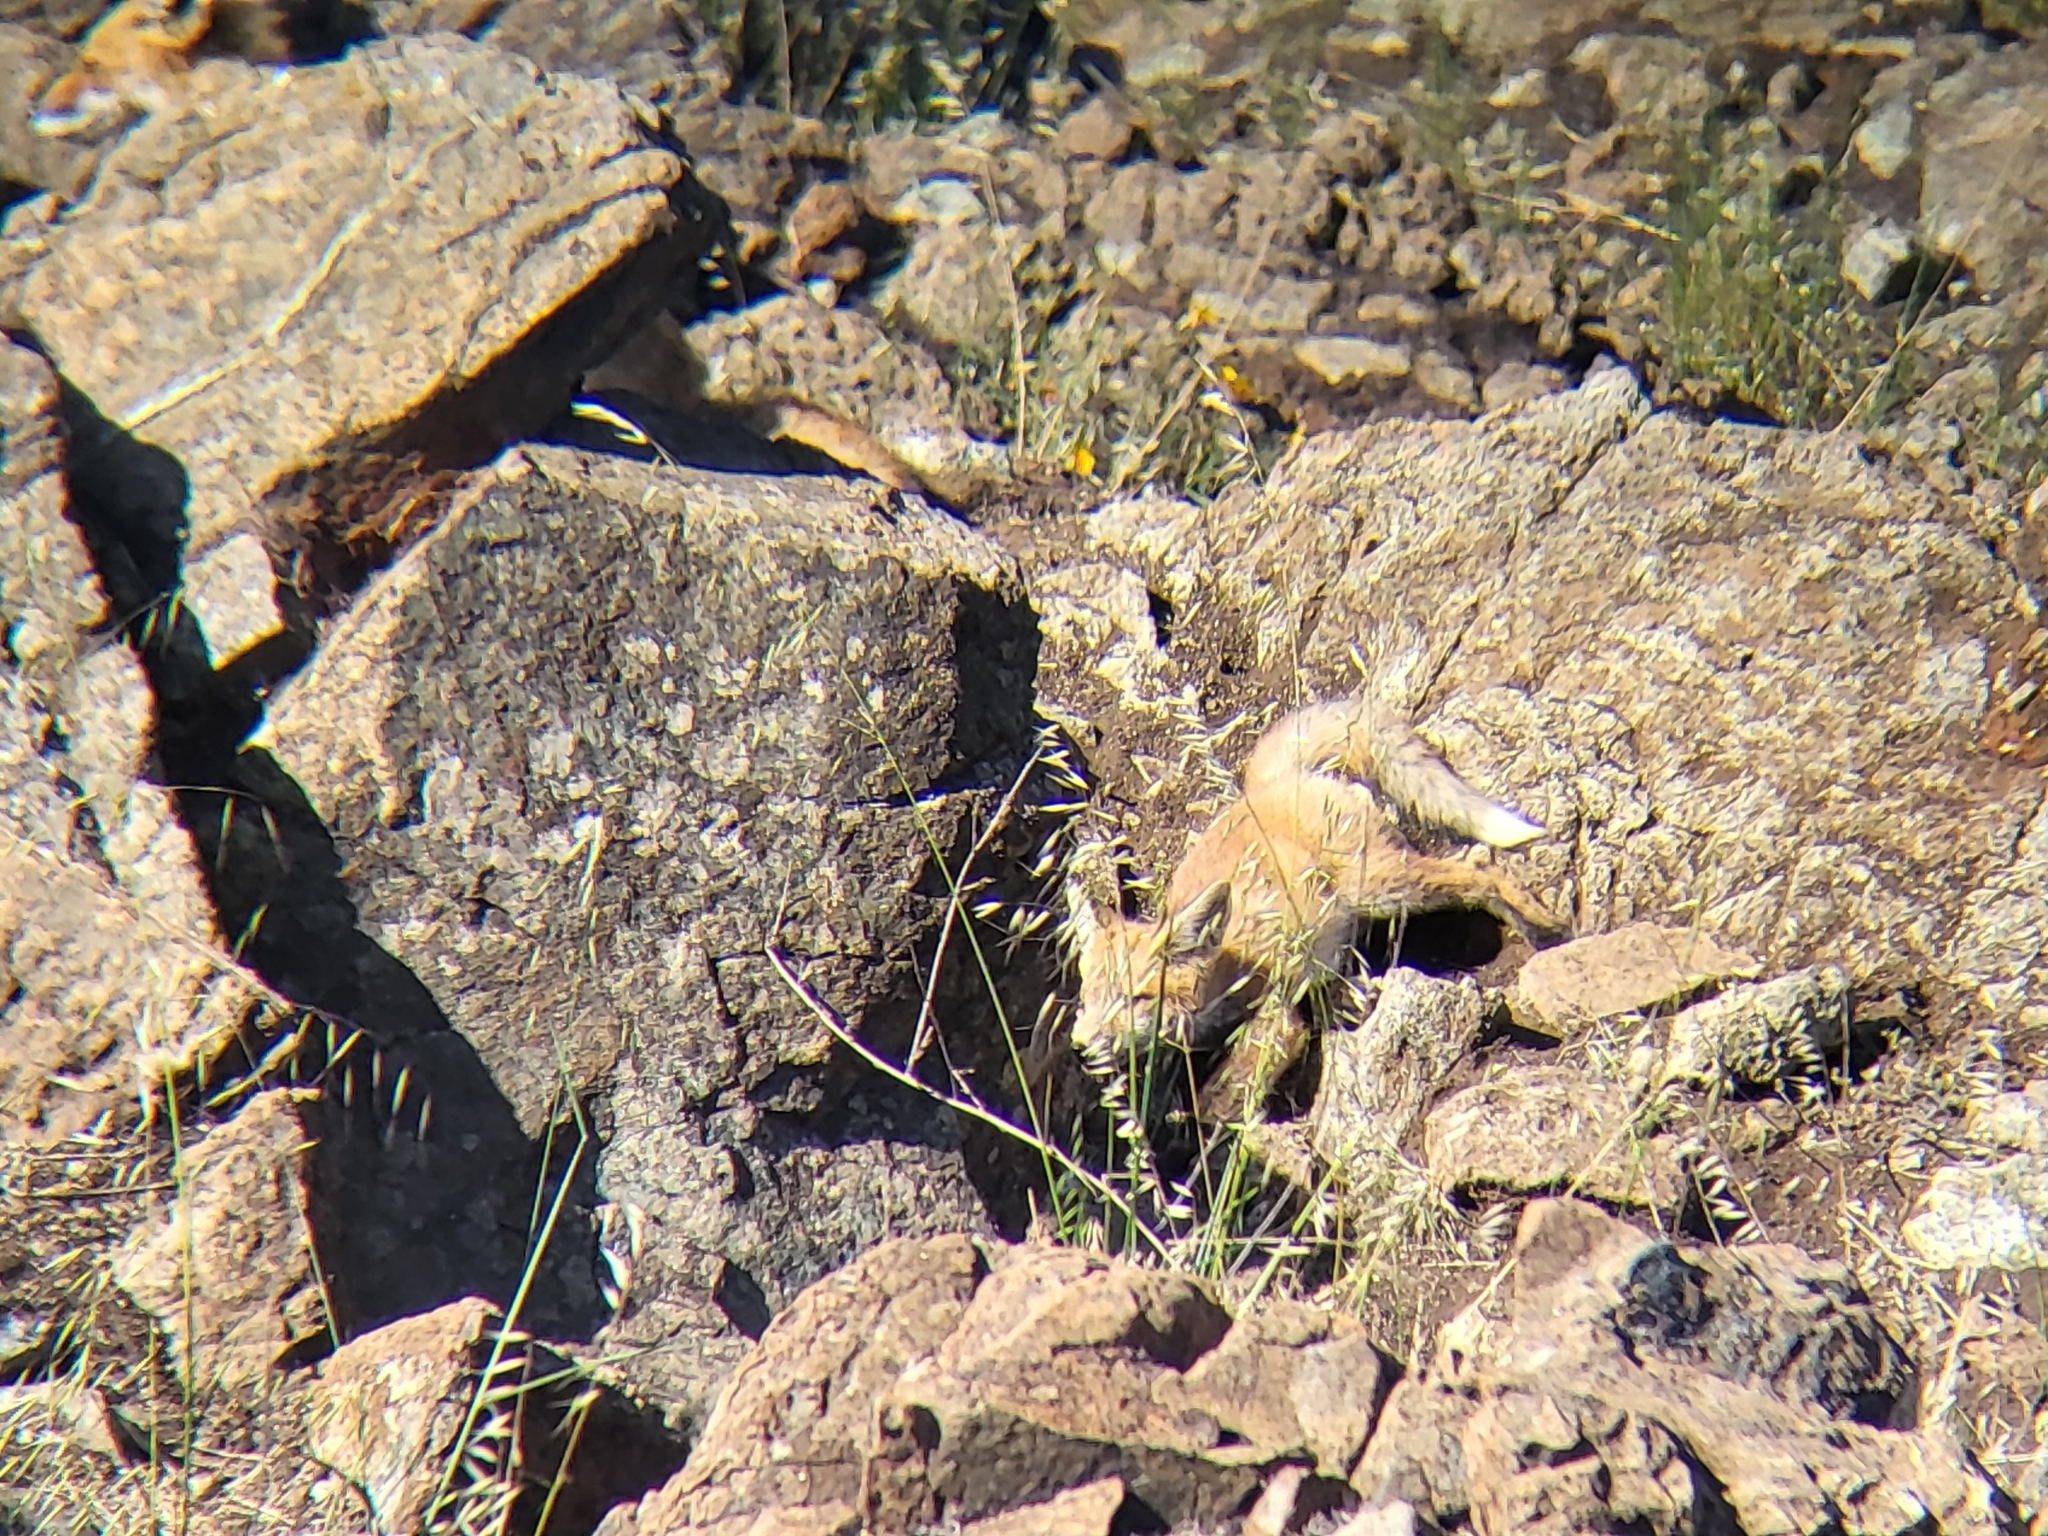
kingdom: Animalia
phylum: Chordata
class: Mammalia
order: Carnivora
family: Canidae
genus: Vulpes
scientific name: Vulpes vulpes
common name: Red fox
